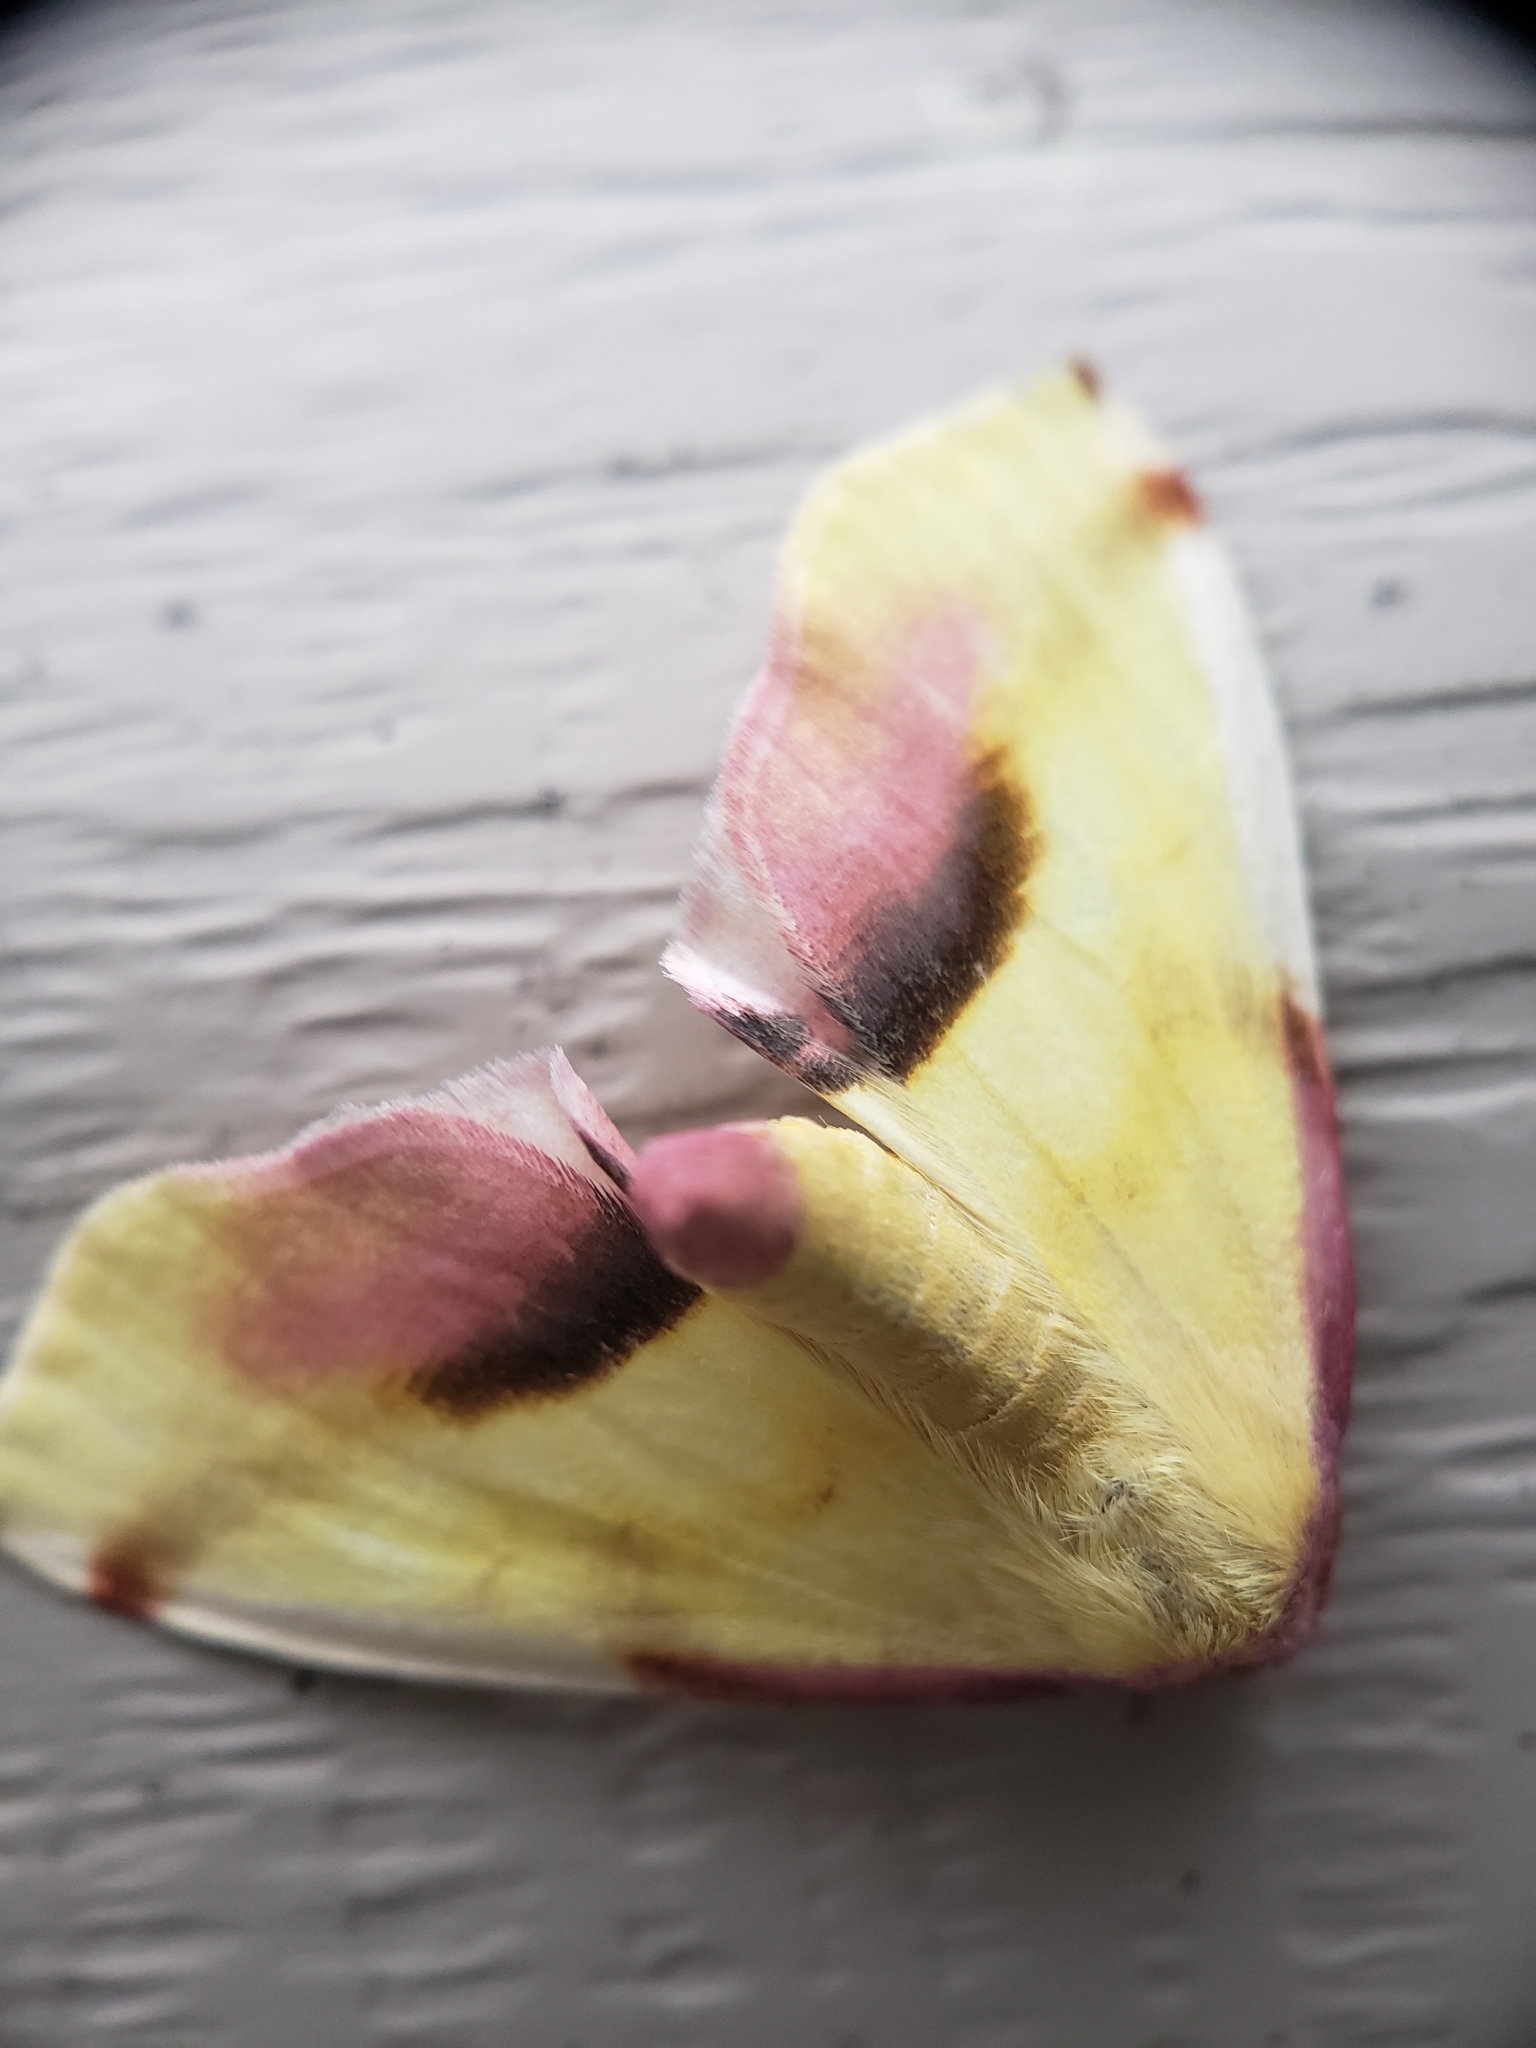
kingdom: Animalia
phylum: Arthropoda
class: Insecta
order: Lepidoptera
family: Geometridae
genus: Plagodis
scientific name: Plagodis serinaria
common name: Lemon plagodis
